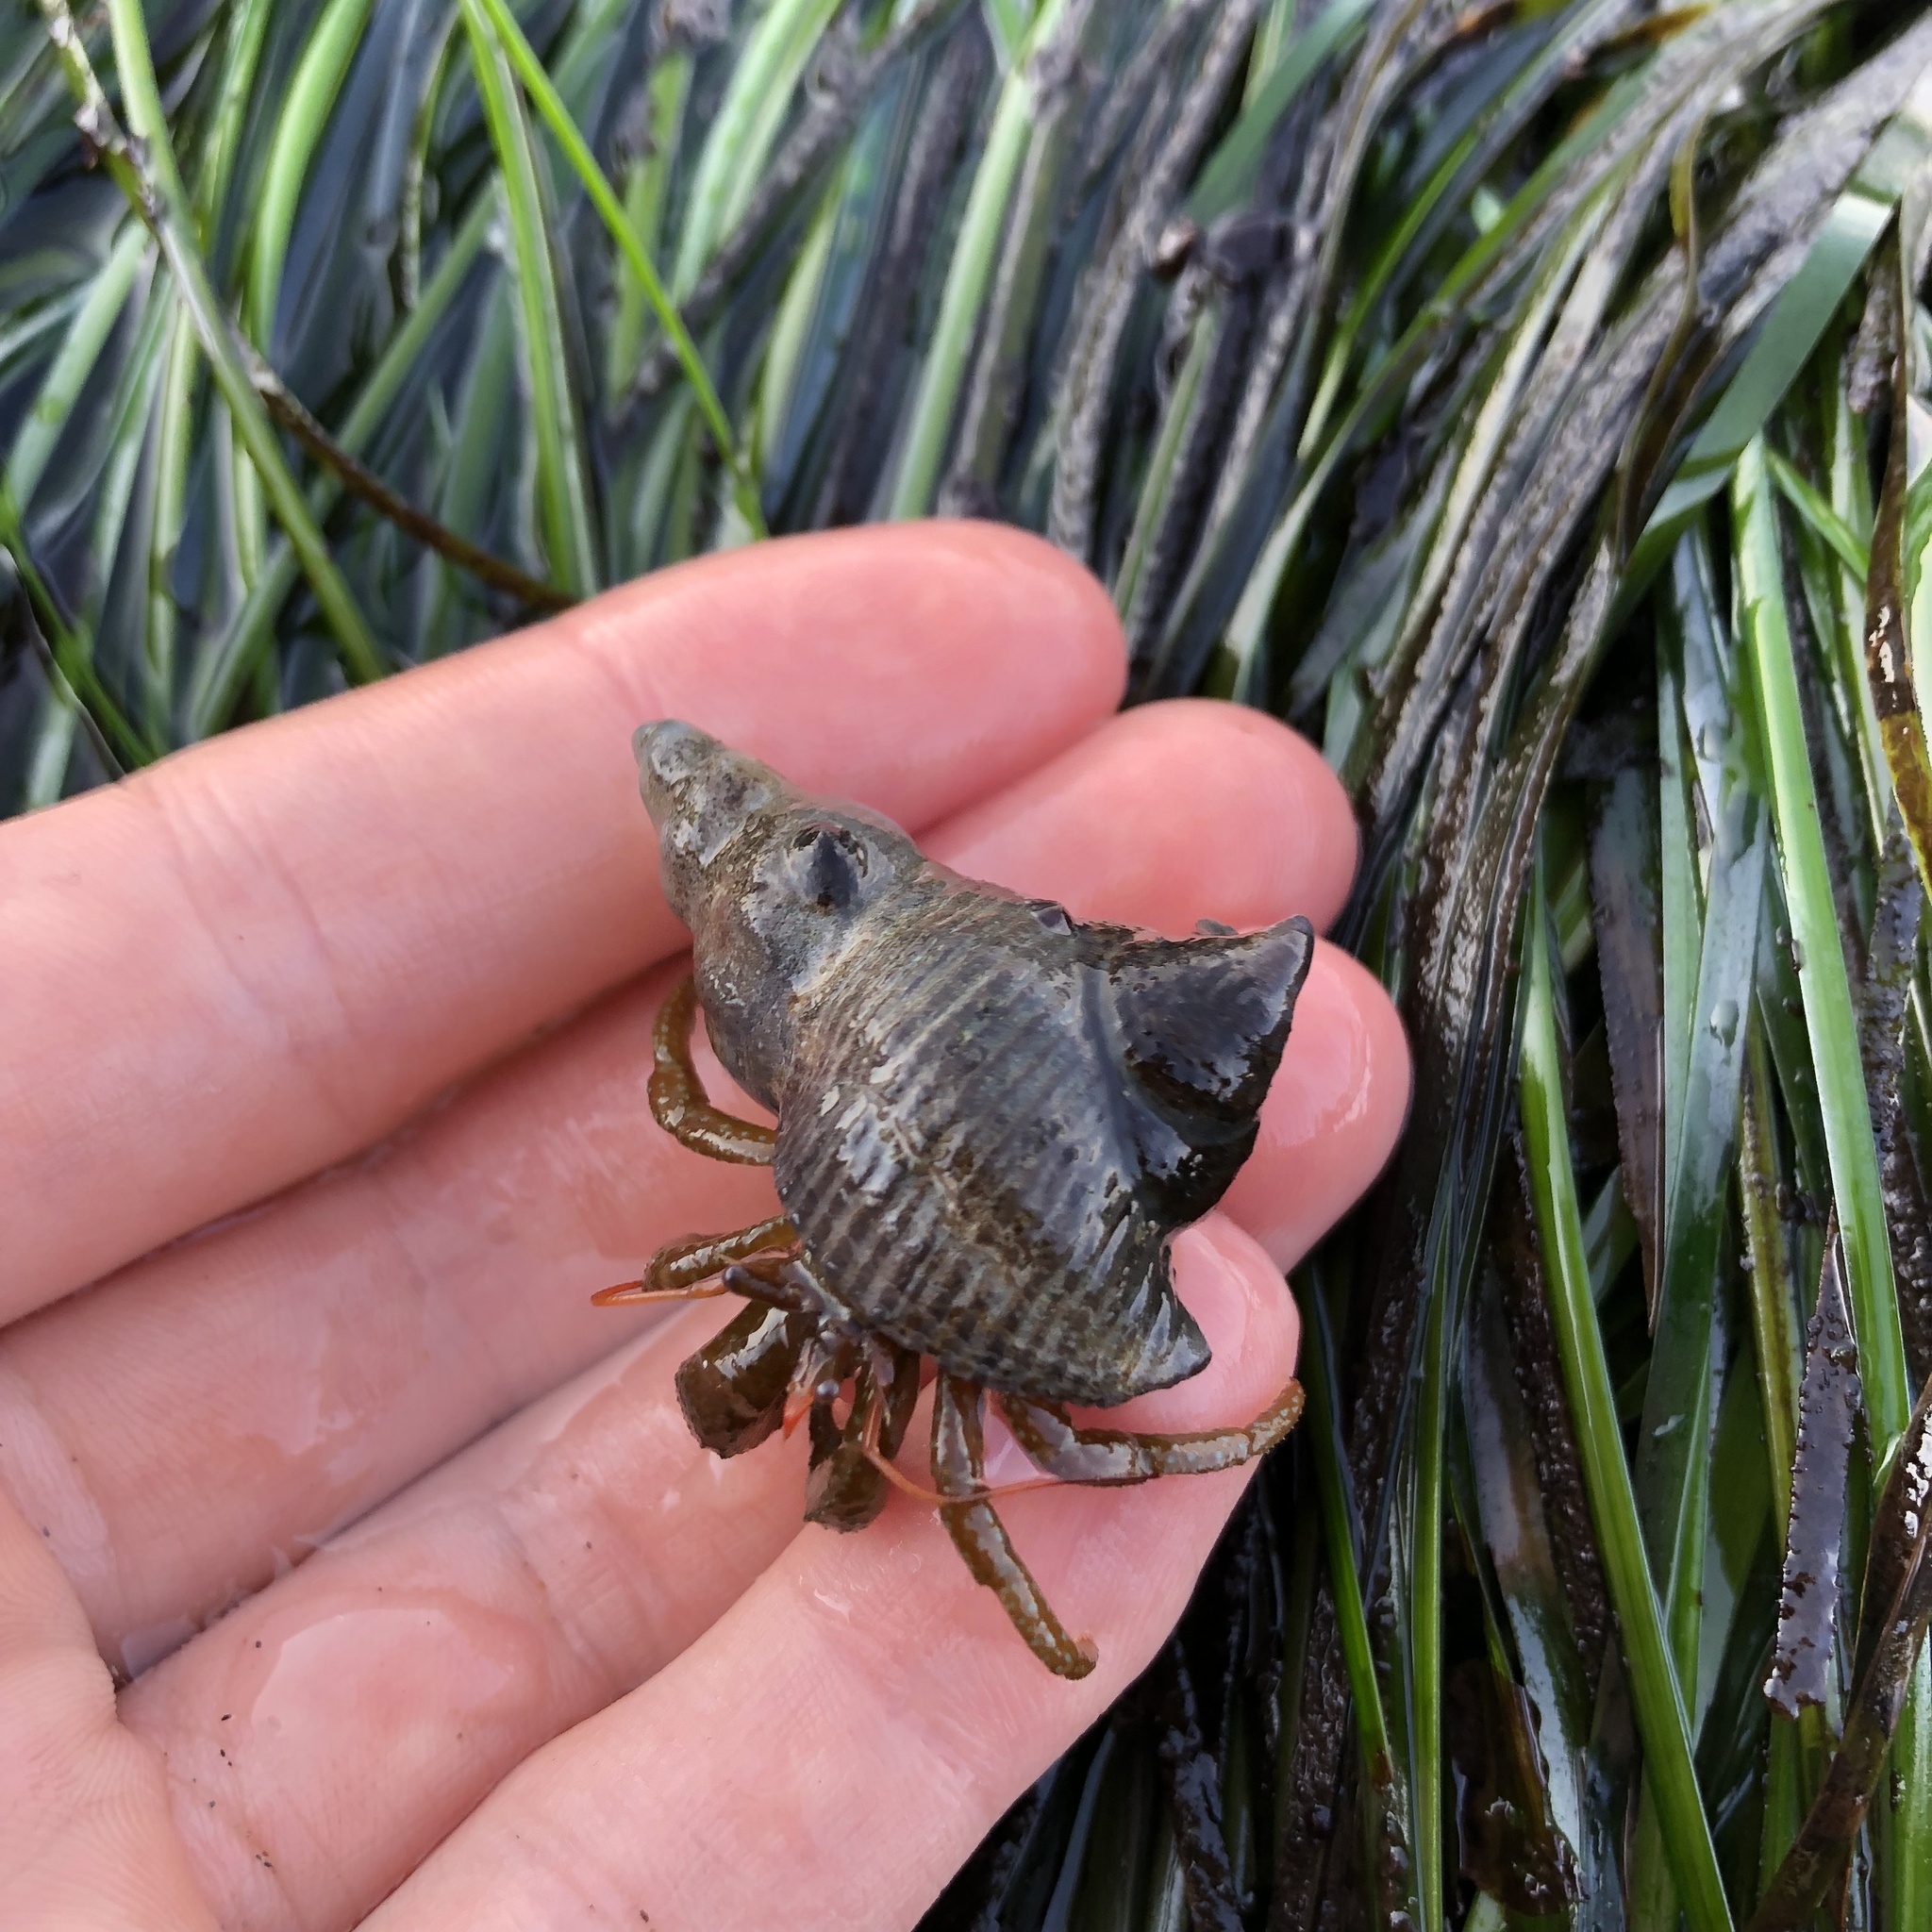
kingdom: Animalia
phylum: Arthropoda
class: Malacostraca
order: Decapoda
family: Paguridae
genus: Pagurus
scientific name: Pagurus granosimanus
